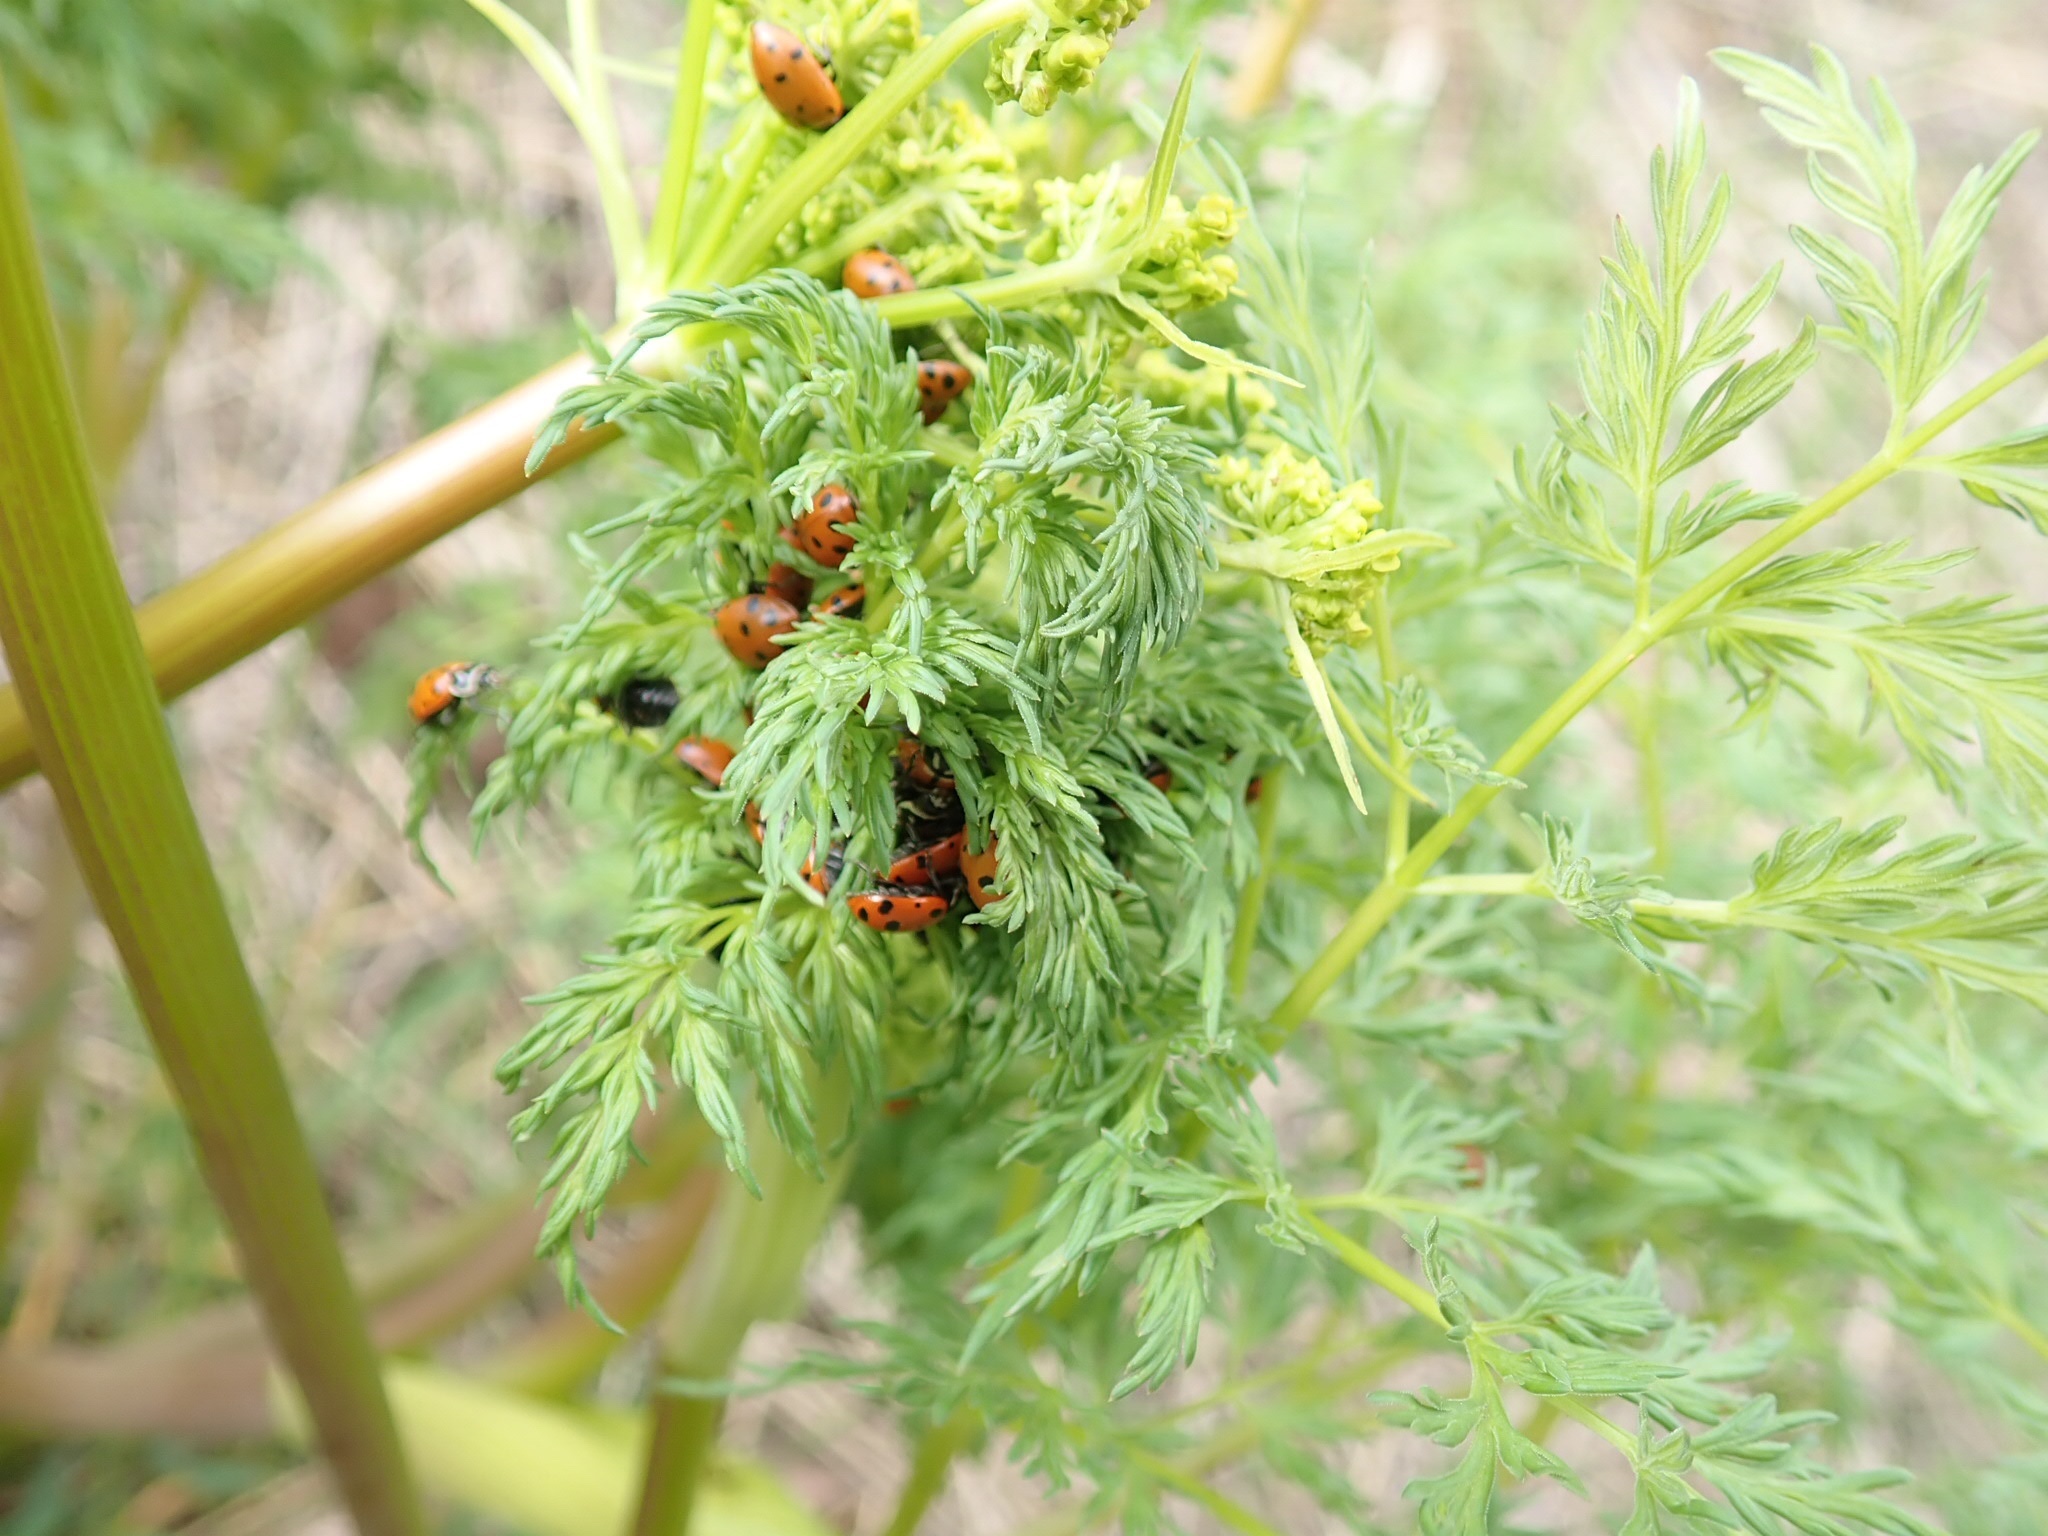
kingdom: Animalia
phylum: Arthropoda
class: Insecta
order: Coleoptera
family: Coccinellidae
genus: Hippodamia
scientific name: Hippodamia convergens
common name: Convergent lady beetle
